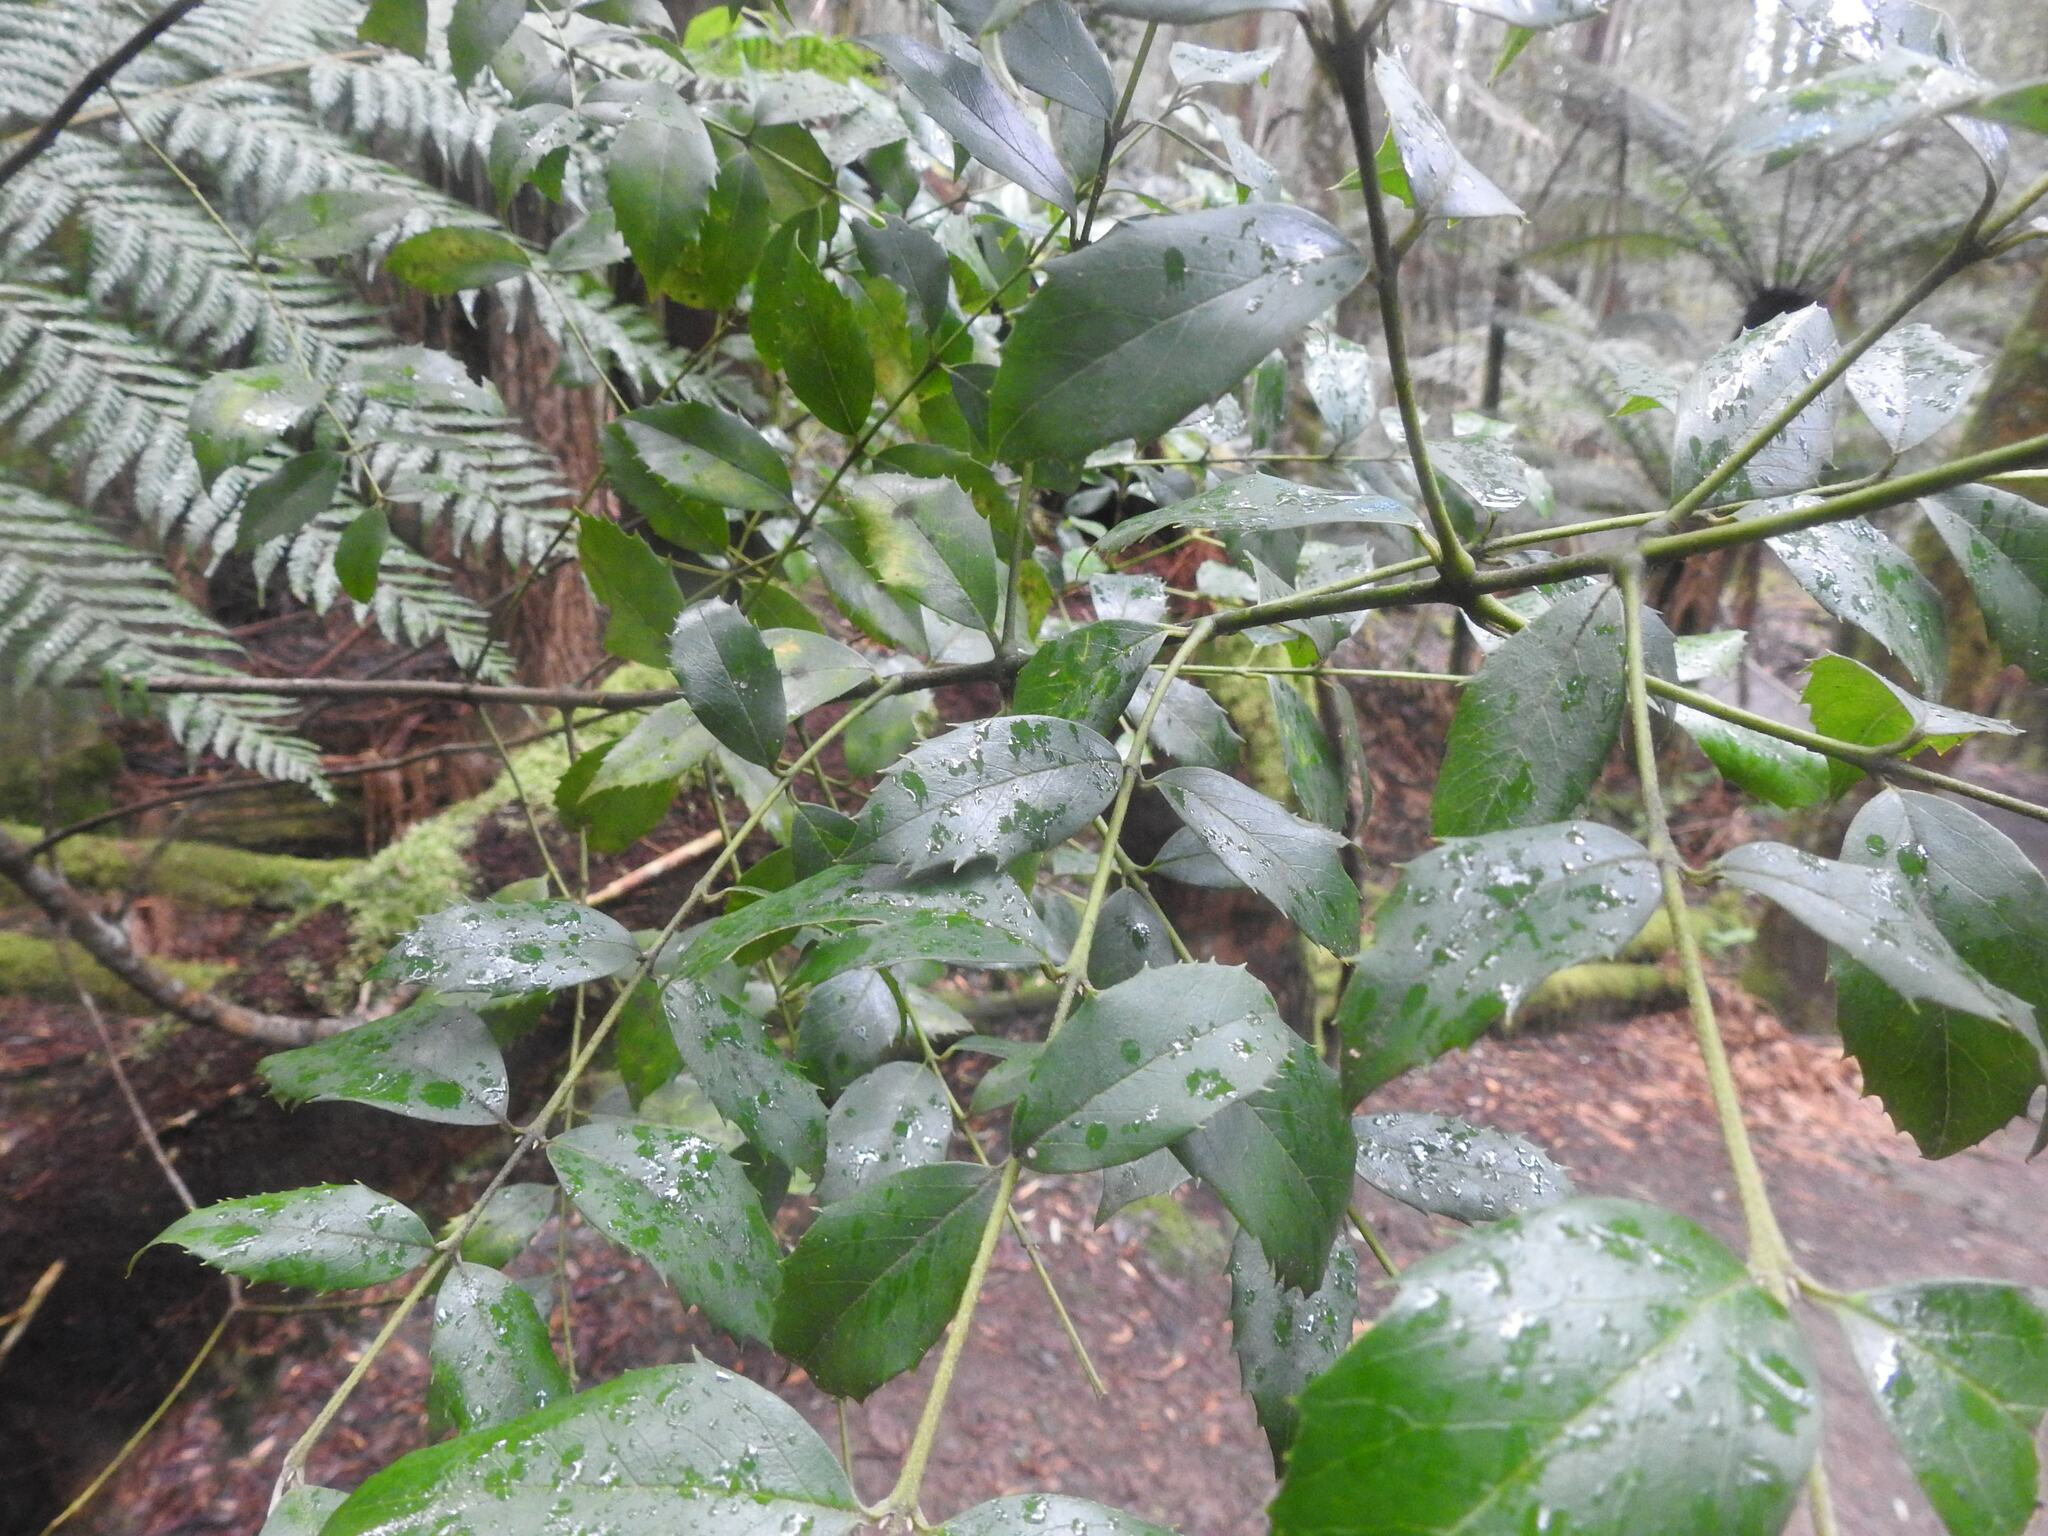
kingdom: Plantae
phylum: Tracheophyta
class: Magnoliopsida
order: Laurales
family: Atherospermataceae
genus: Atherosperma
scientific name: Atherosperma moschatum
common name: Tasmanian-sassafras
